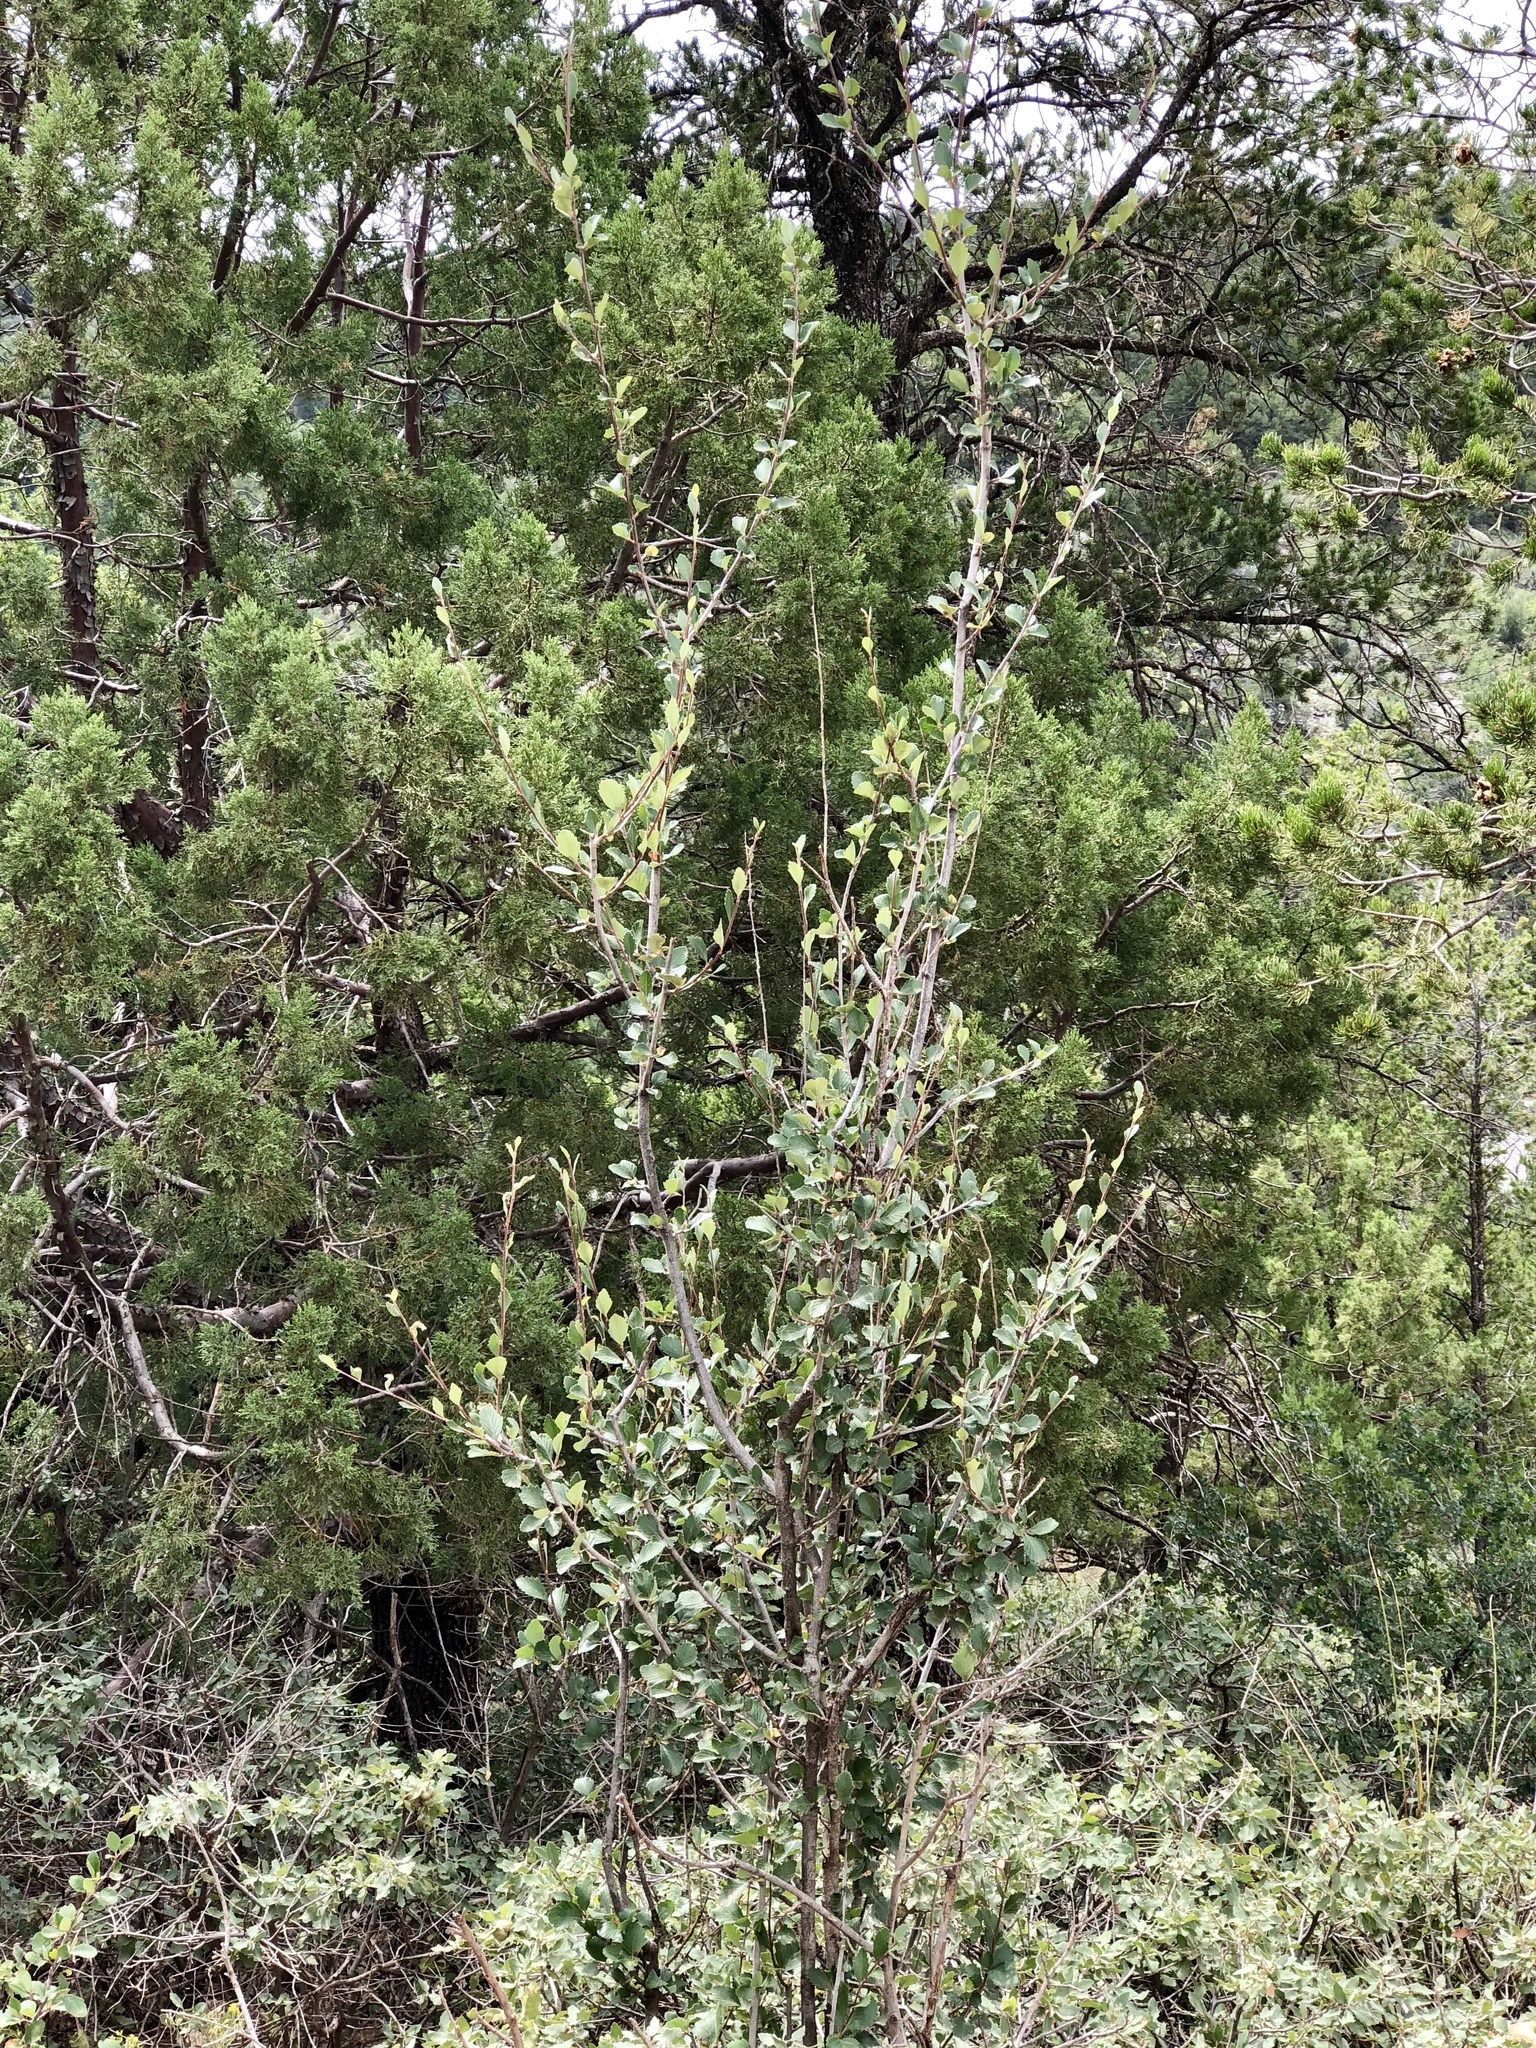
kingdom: Plantae
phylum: Tracheophyta
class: Magnoliopsida
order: Rosales
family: Rosaceae
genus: Cercocarpus
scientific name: Cercocarpus montanus
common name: Alder-leaf cercocarpus
